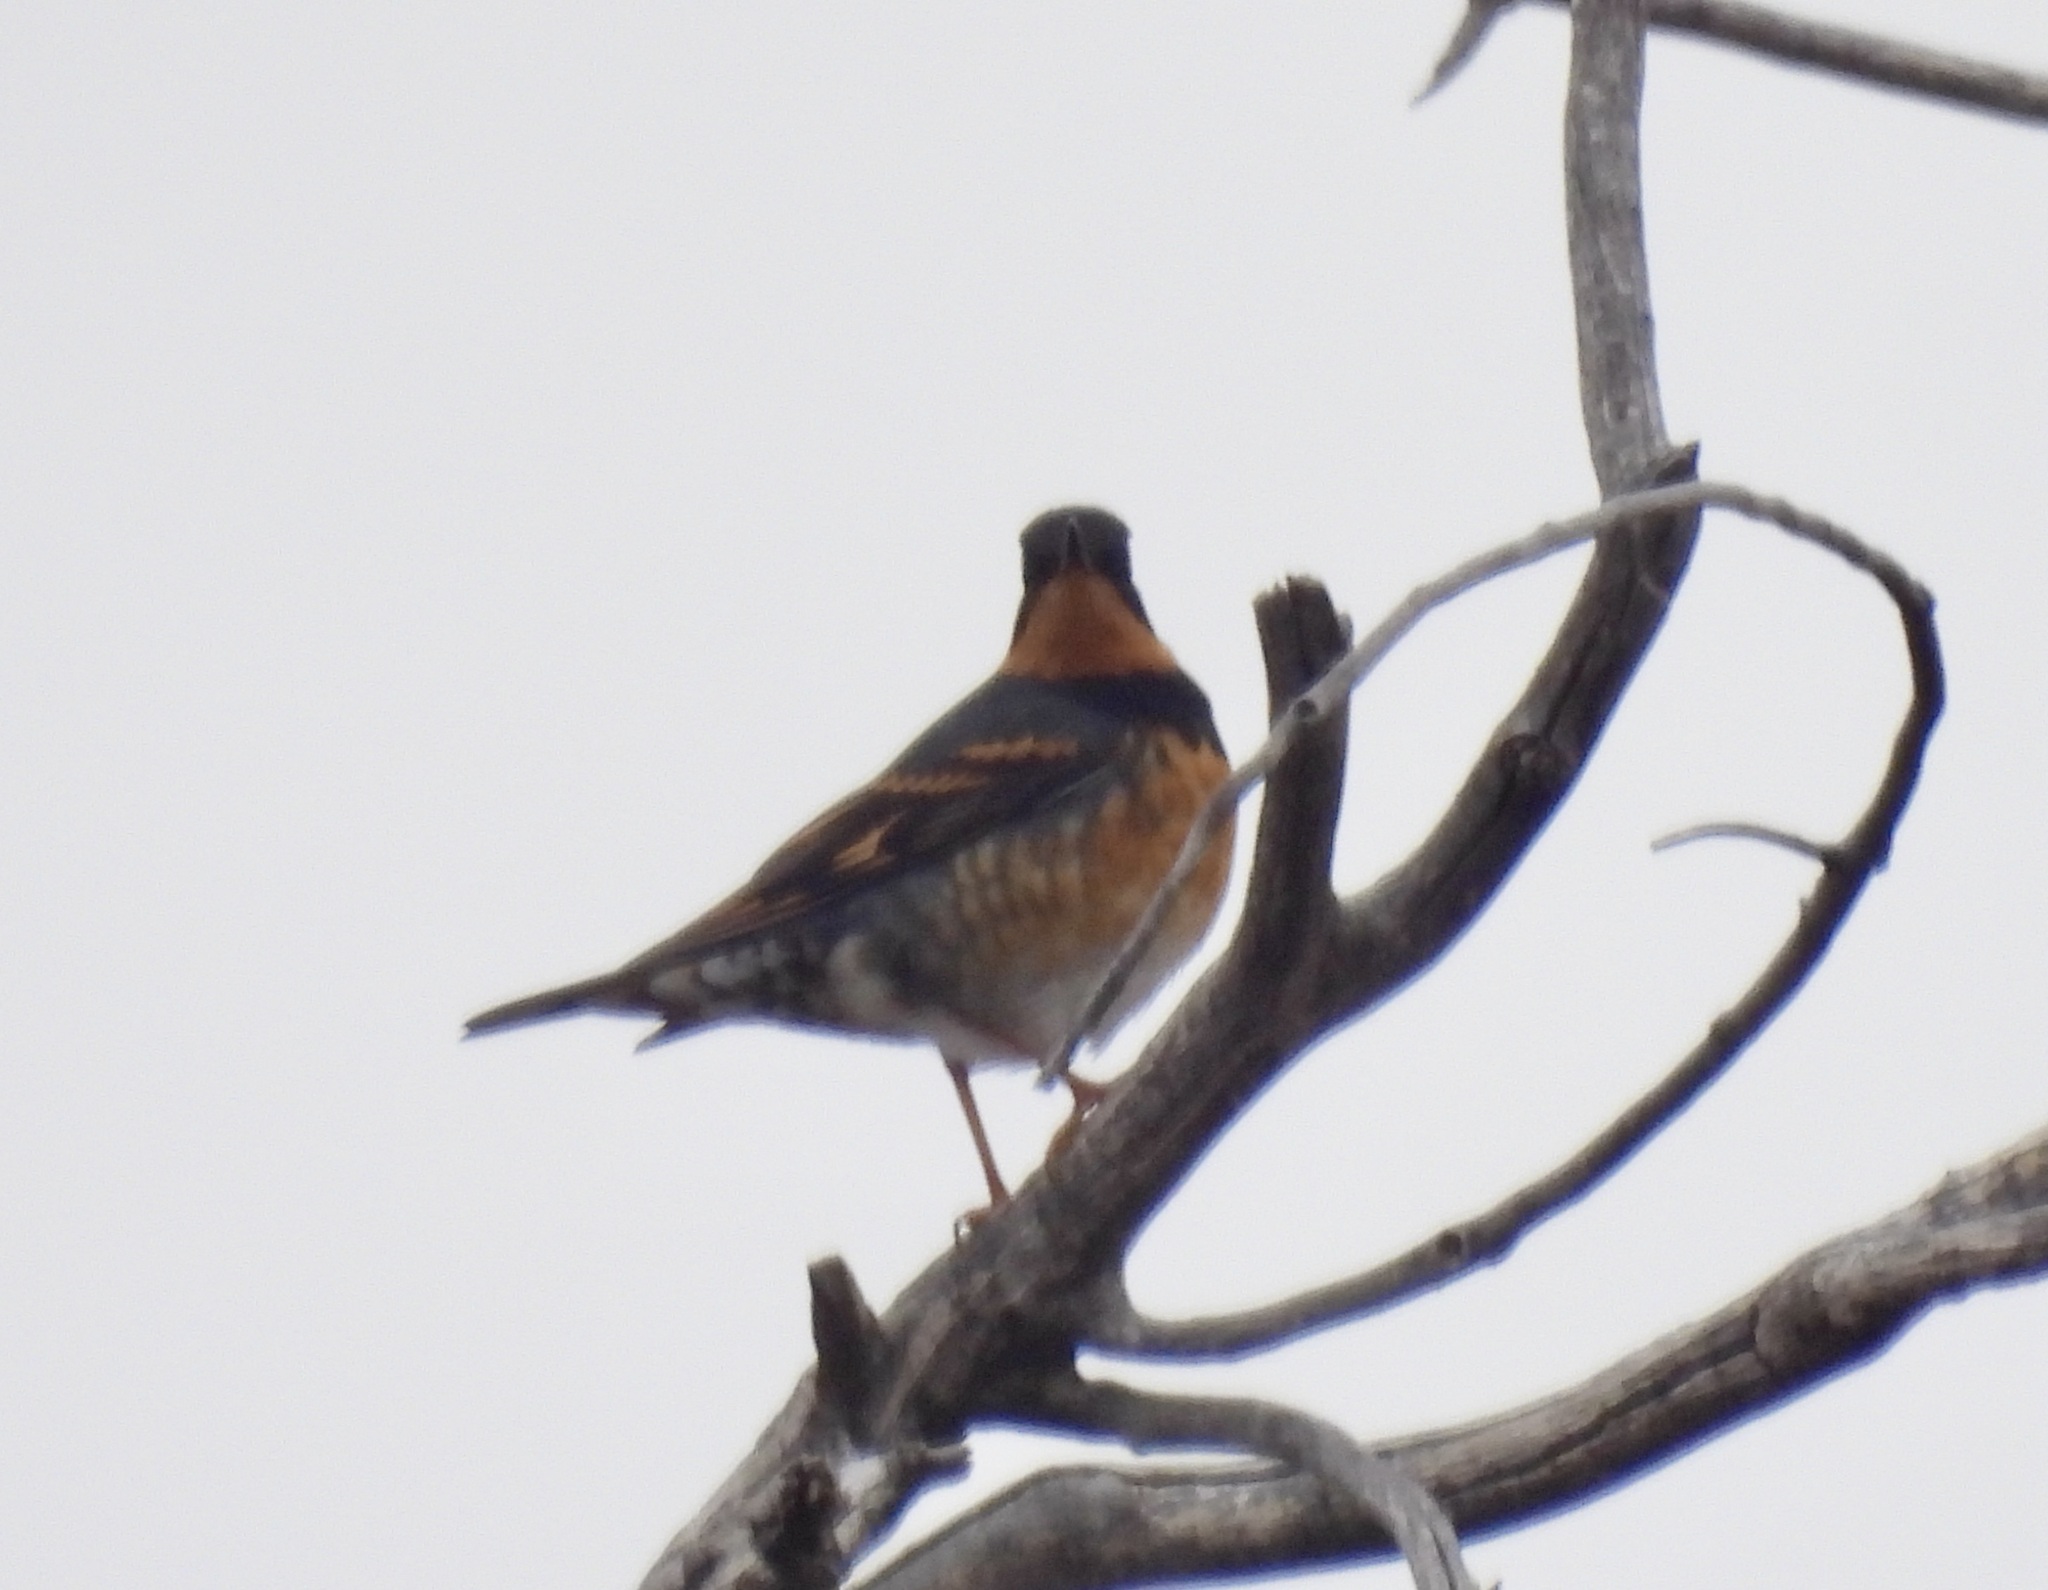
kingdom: Animalia
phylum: Chordata
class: Aves
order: Passeriformes
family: Turdidae
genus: Ixoreus
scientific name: Ixoreus naevius
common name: Varied thrush
